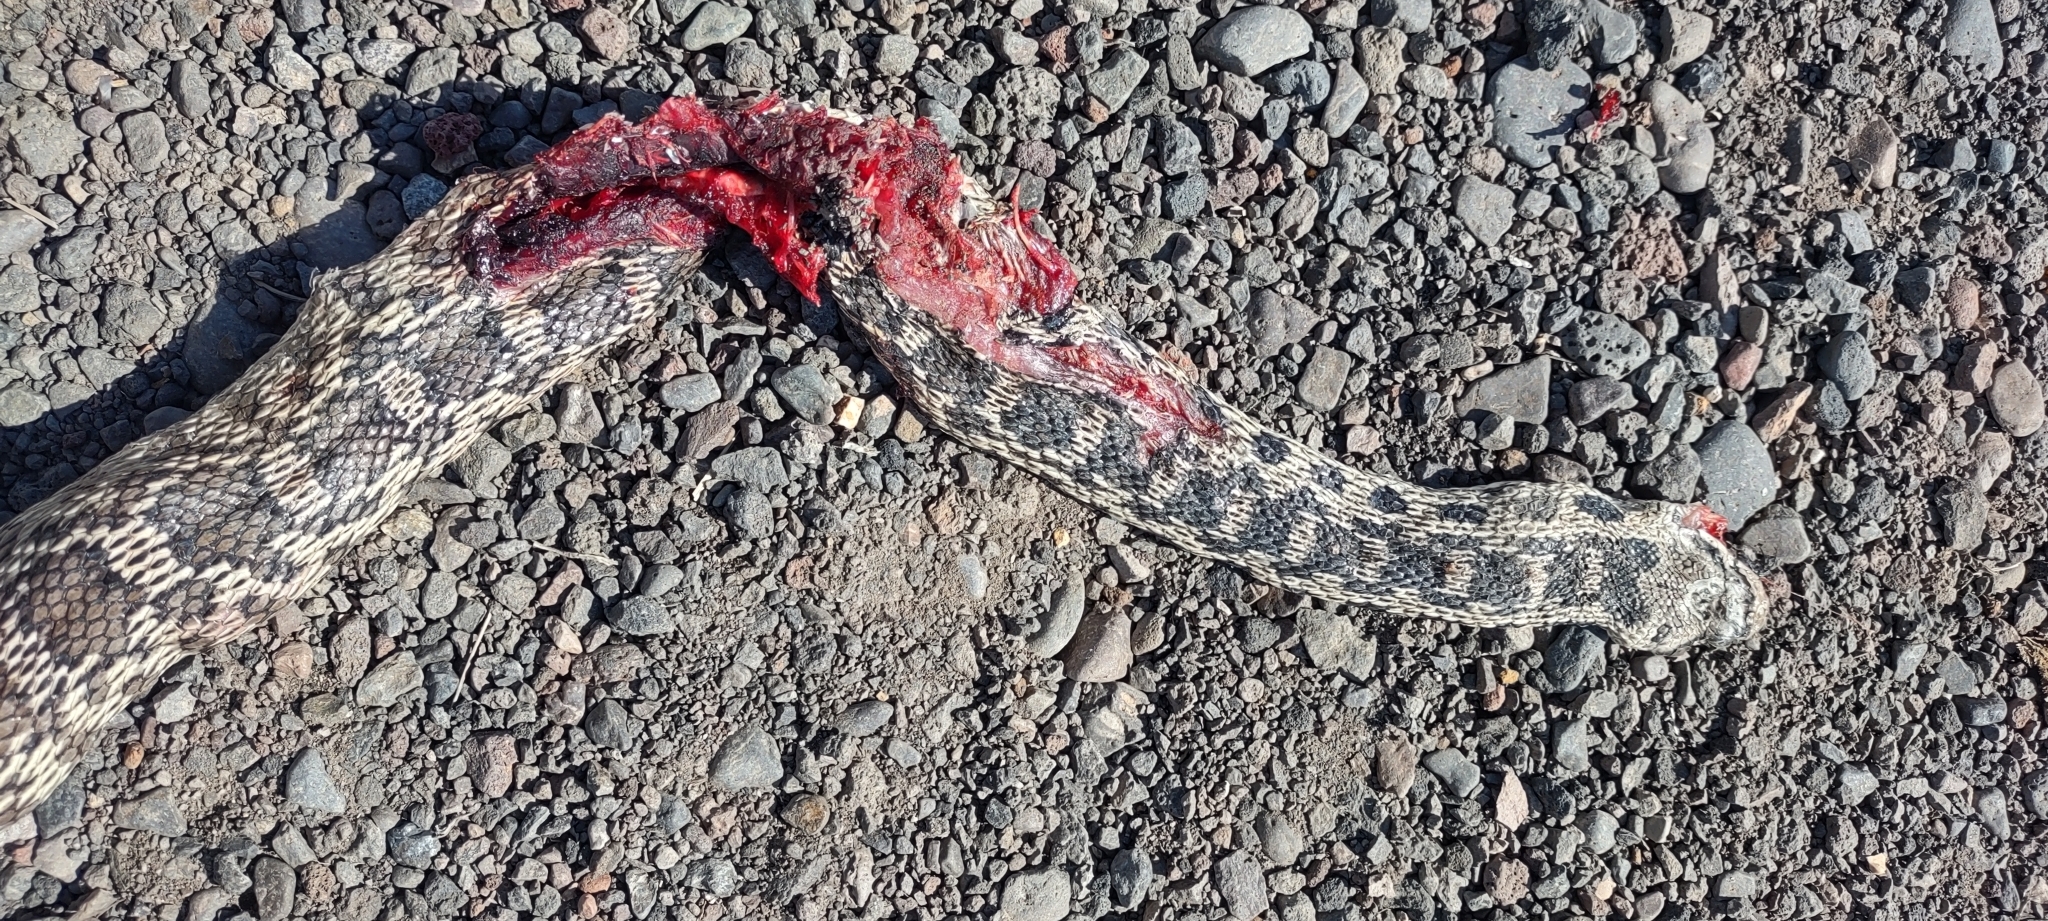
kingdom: Animalia
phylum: Chordata
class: Squamata
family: Colubridae
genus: Pituophis
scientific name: Pituophis catenifer
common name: Gopher snake
